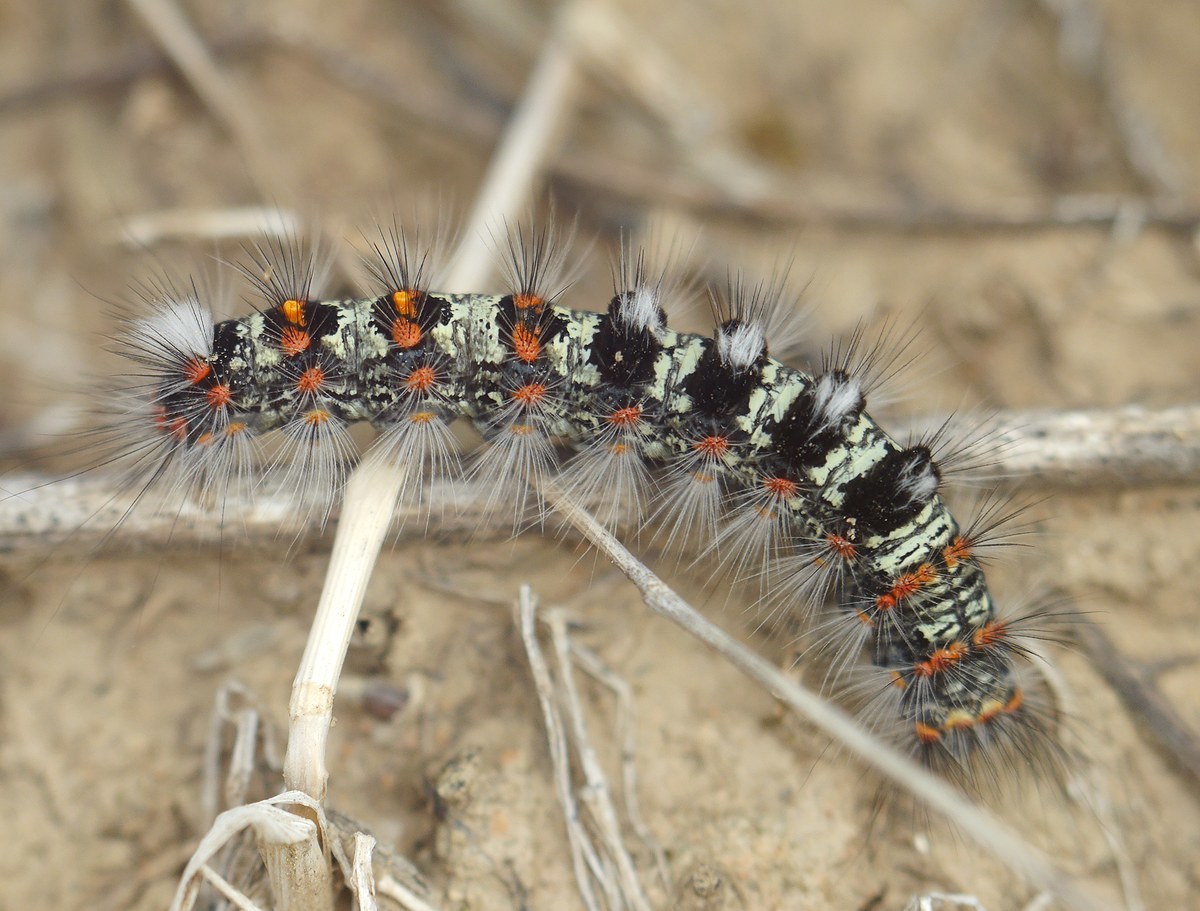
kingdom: Animalia
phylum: Arthropoda
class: Insecta
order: Lepidoptera
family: Erebidae
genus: Orgyia
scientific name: Orgyia dubia
